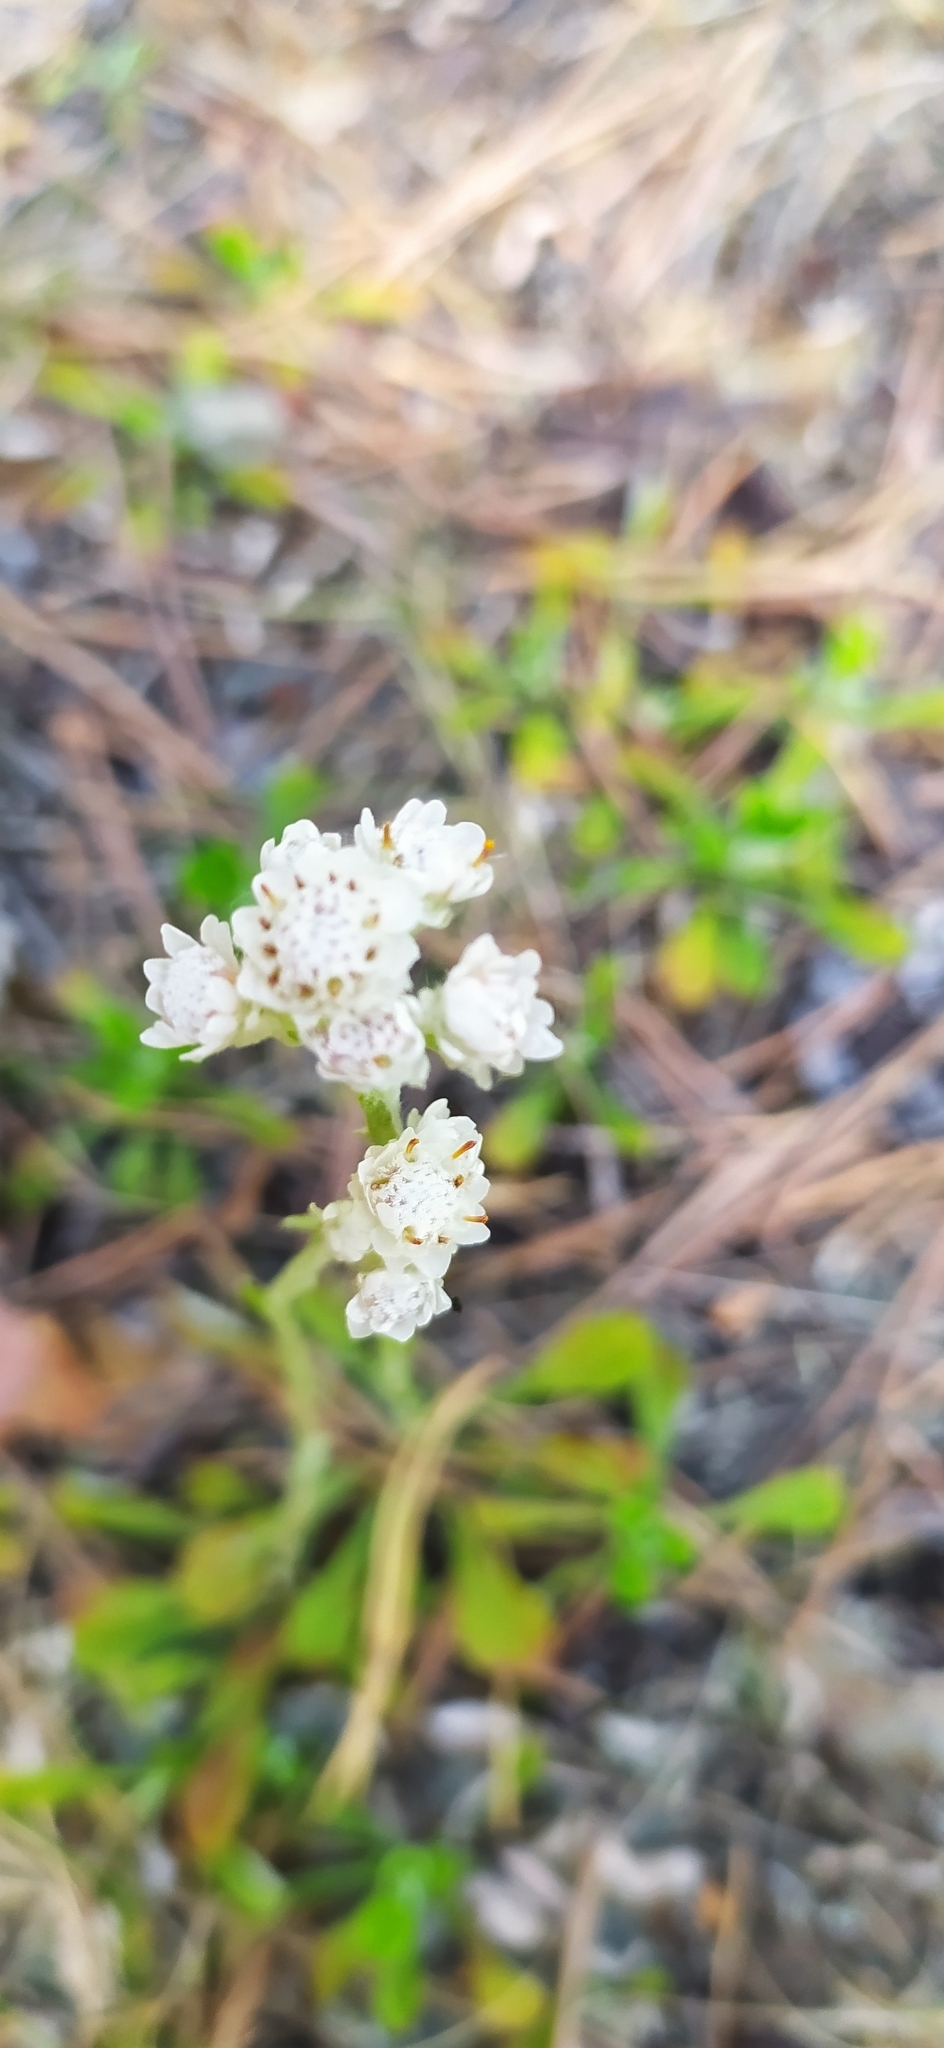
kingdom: Plantae
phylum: Tracheophyta
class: Magnoliopsida
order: Asterales
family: Asteraceae
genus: Antennaria
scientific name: Antennaria dioica
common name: Mountain everlasting
